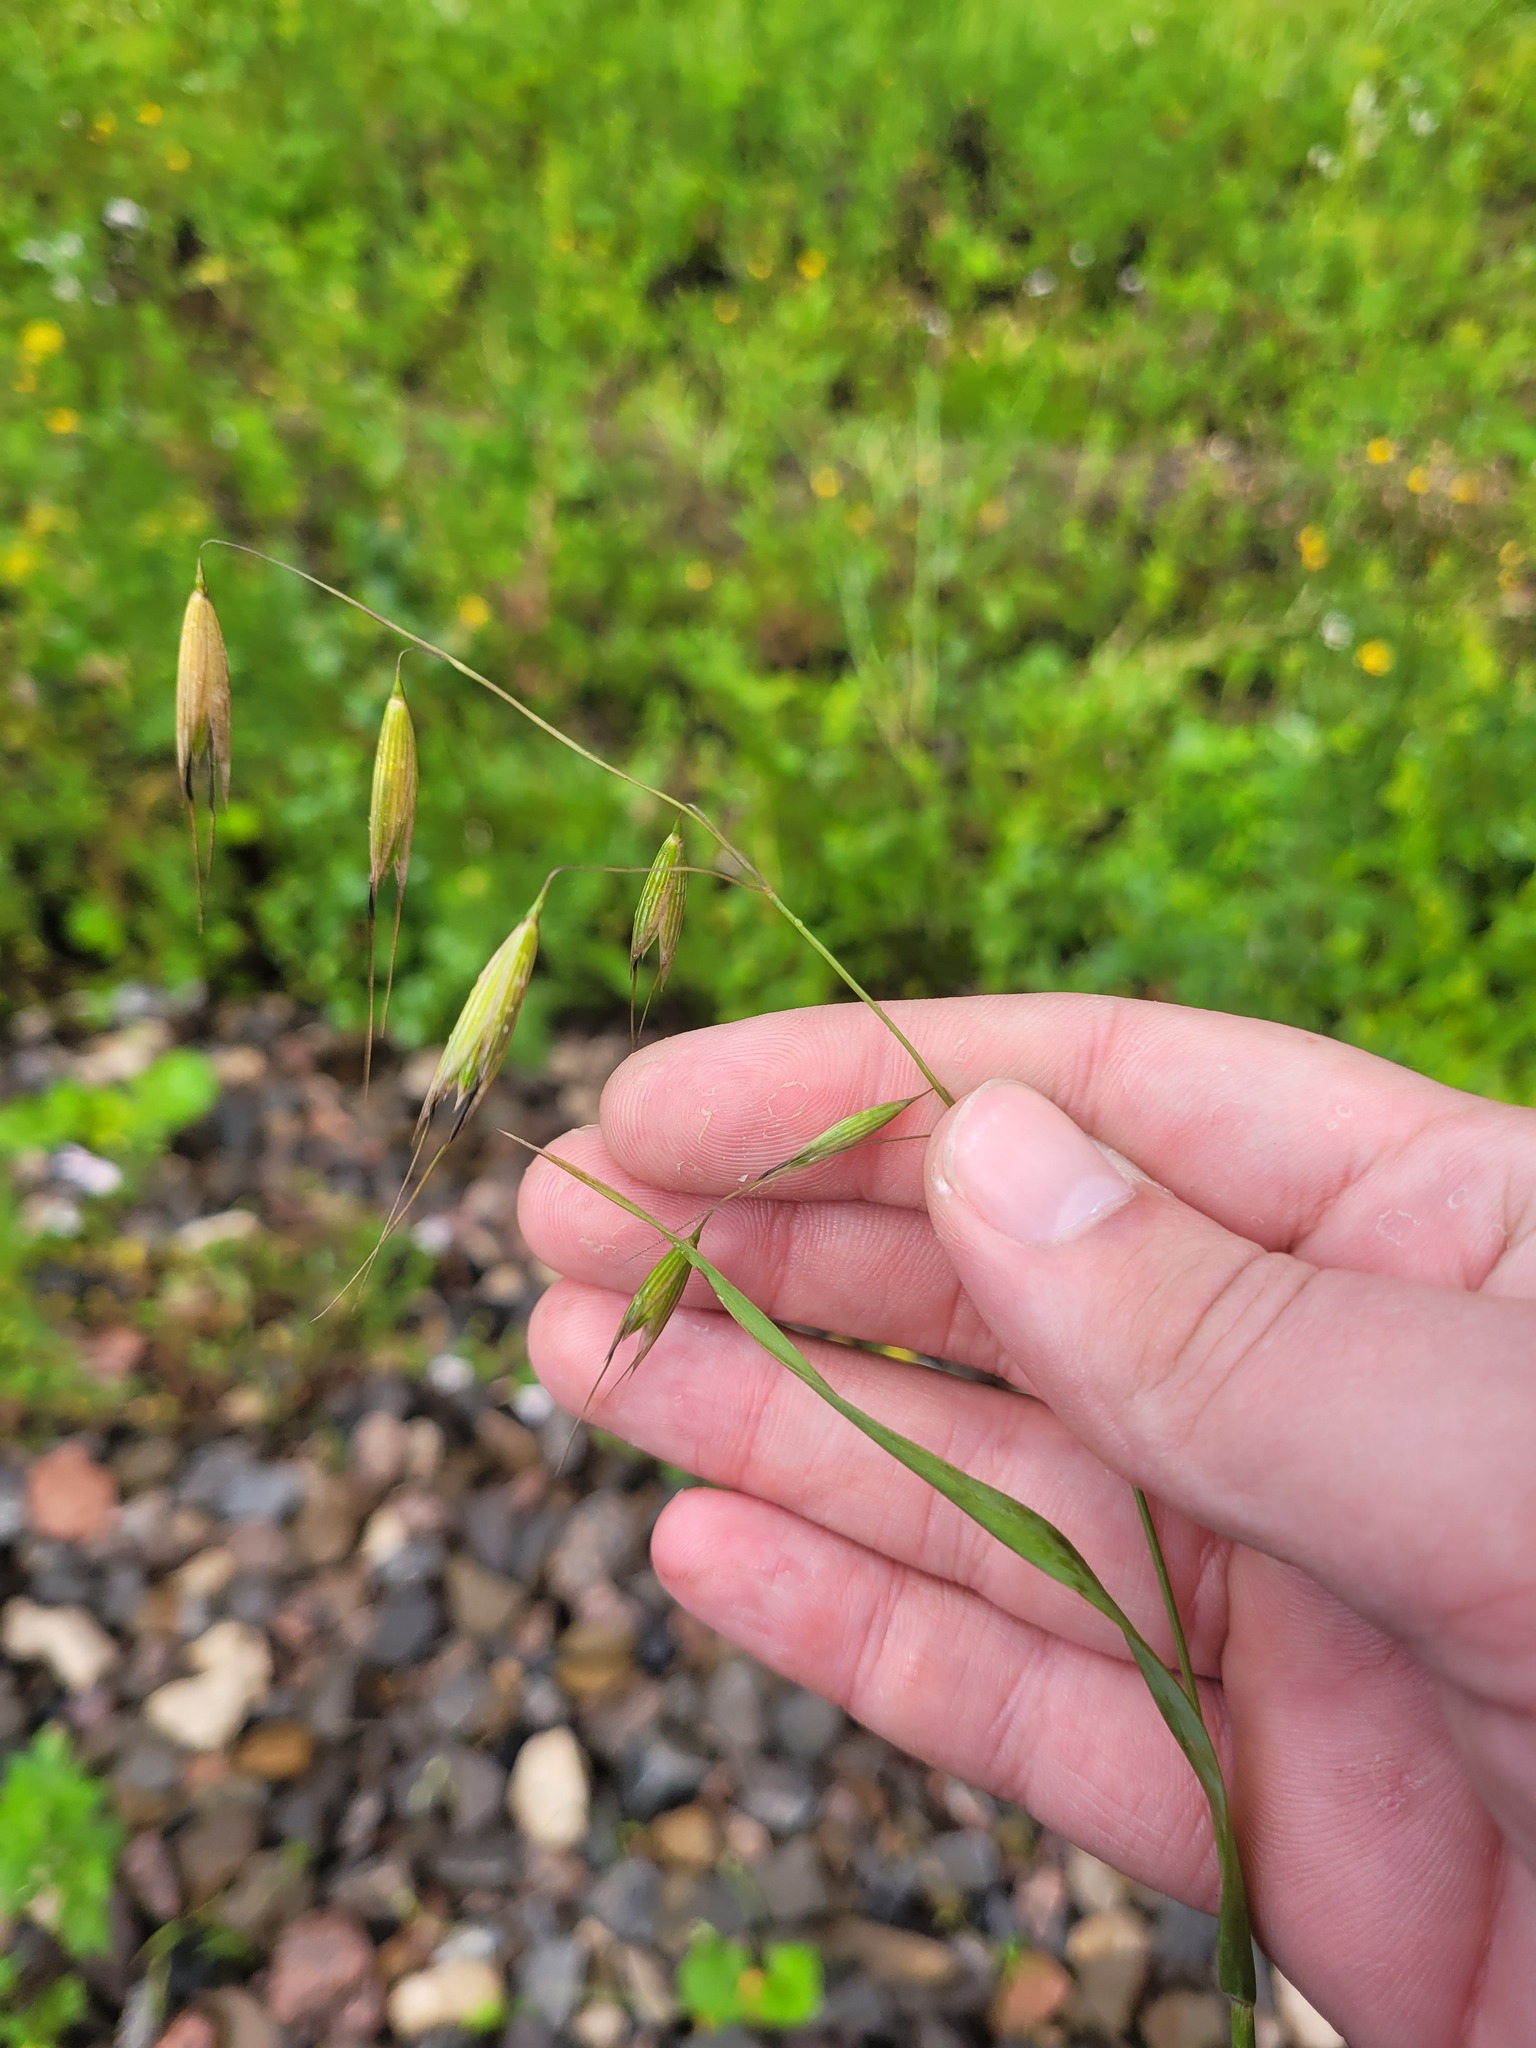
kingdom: Plantae
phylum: Tracheophyta
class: Liliopsida
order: Poales
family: Poaceae
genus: Avena
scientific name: Avena fatua
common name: Wild oat
